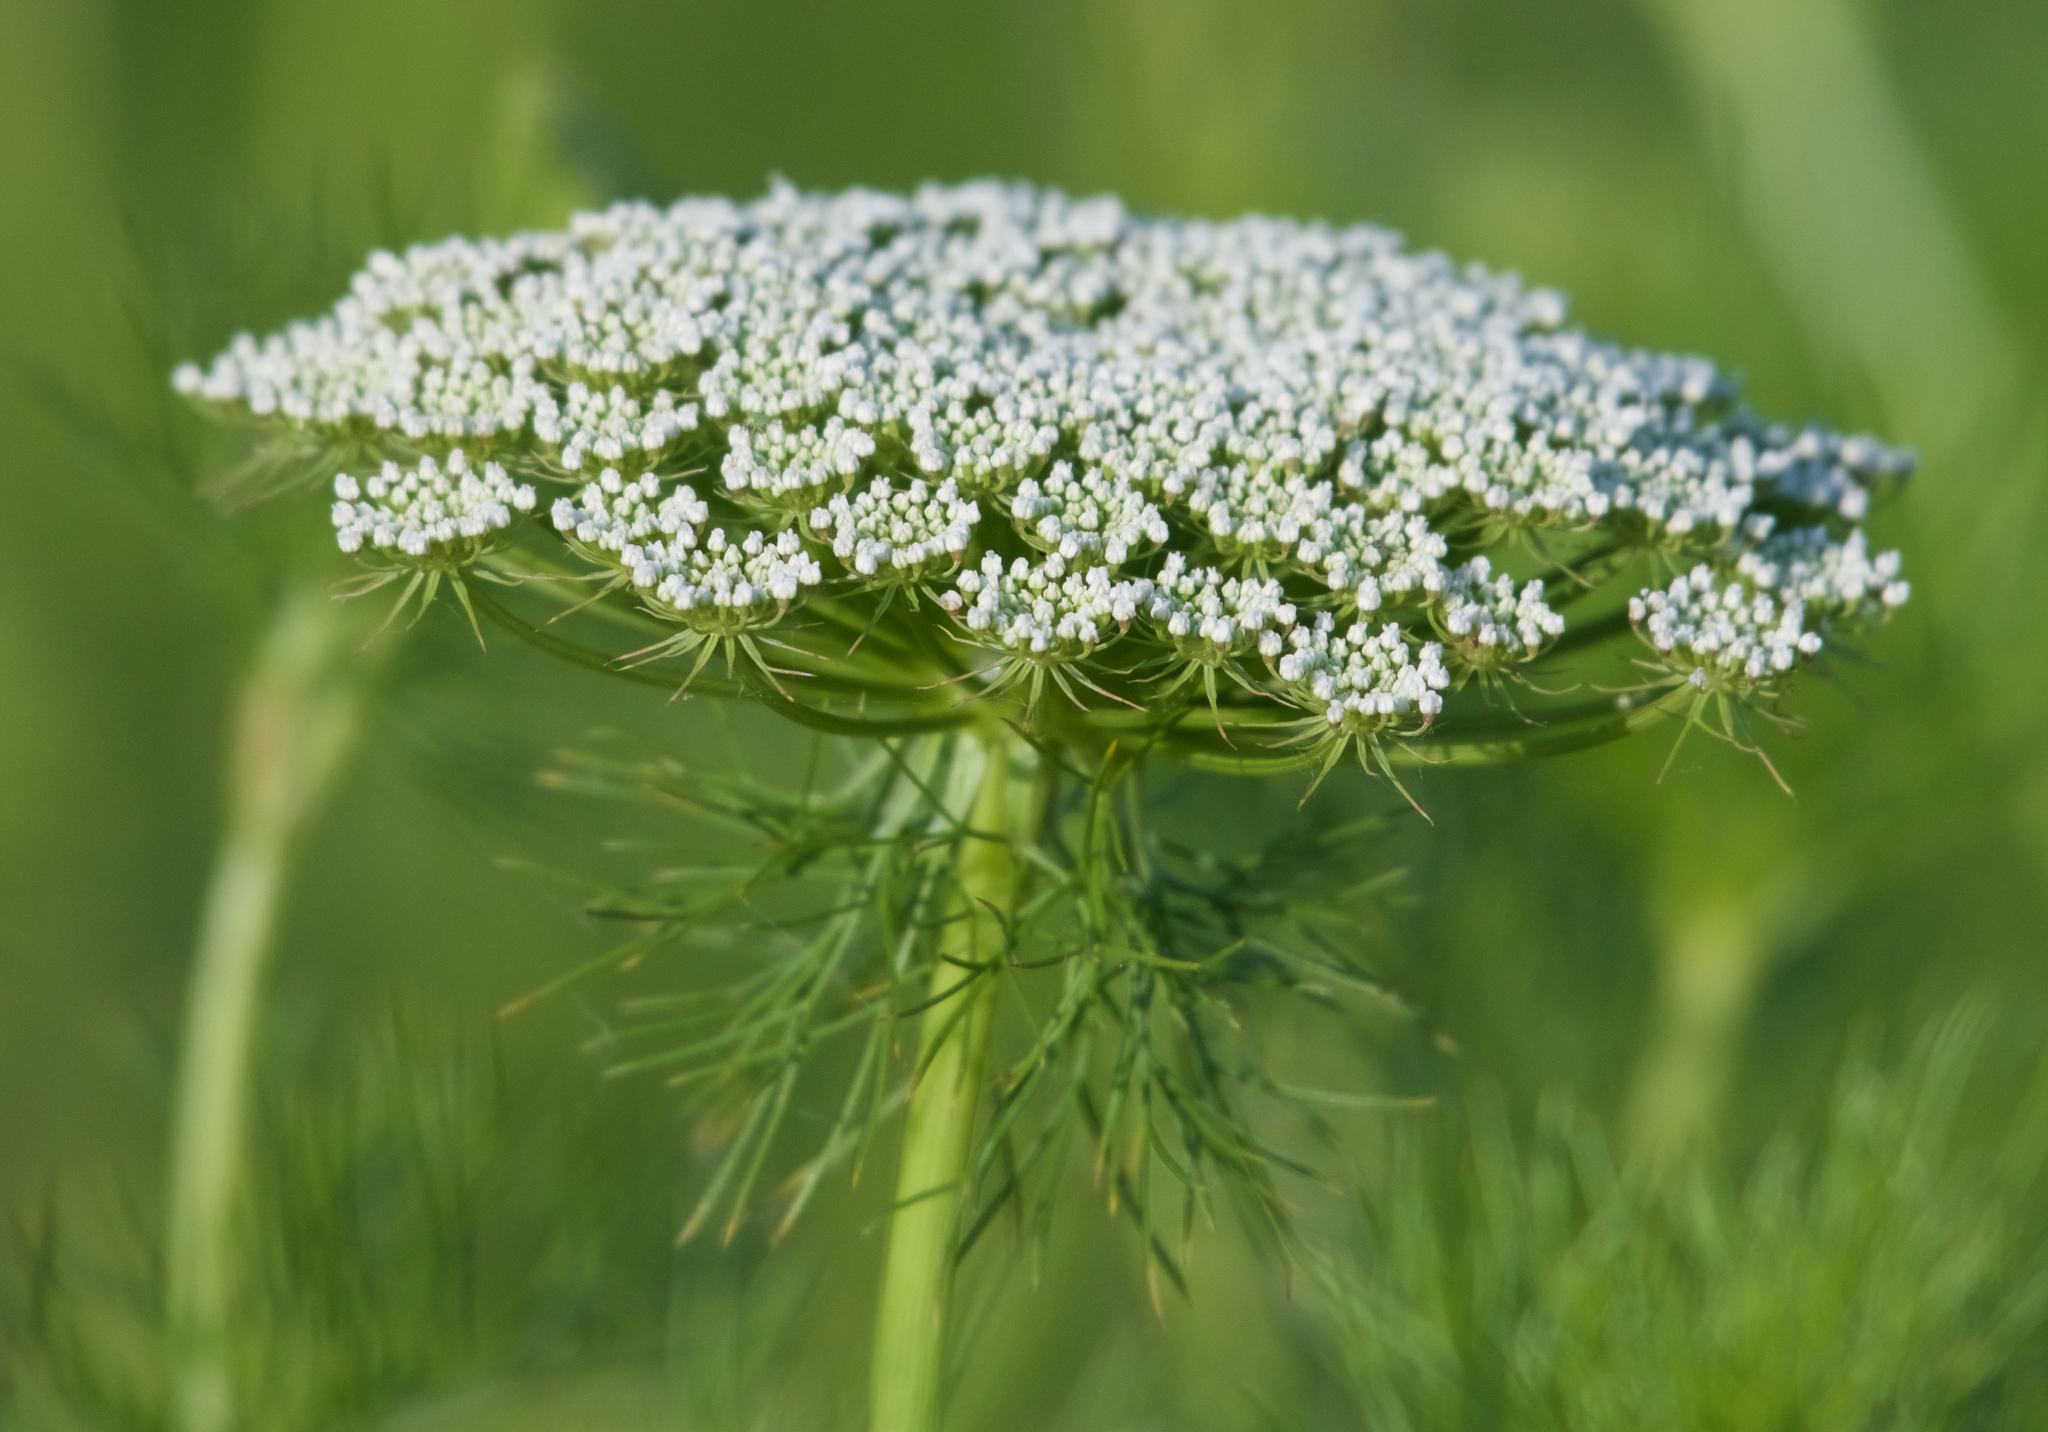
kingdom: Plantae
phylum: Tracheophyta
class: Magnoliopsida
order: Apiales
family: Apiaceae
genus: Visnaga
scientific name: Visnaga daucoides
